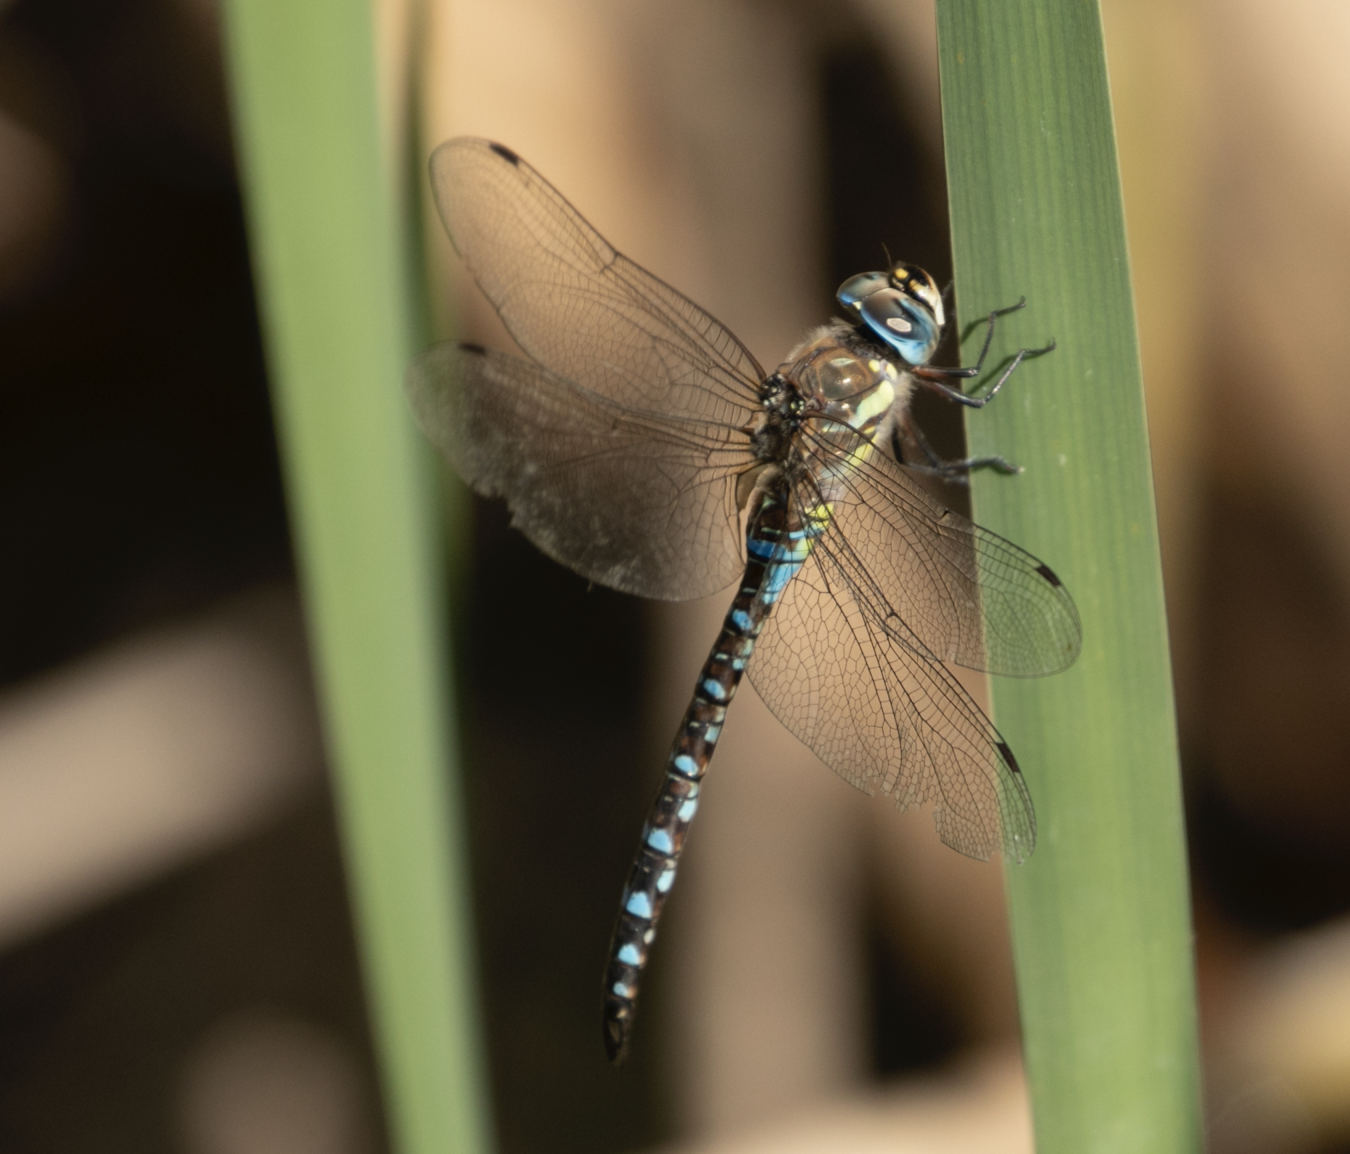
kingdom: Animalia
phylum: Arthropoda
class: Insecta
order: Odonata
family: Aeshnidae
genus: Aeshna
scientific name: Aeshna mixta
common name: Migrant hawker
